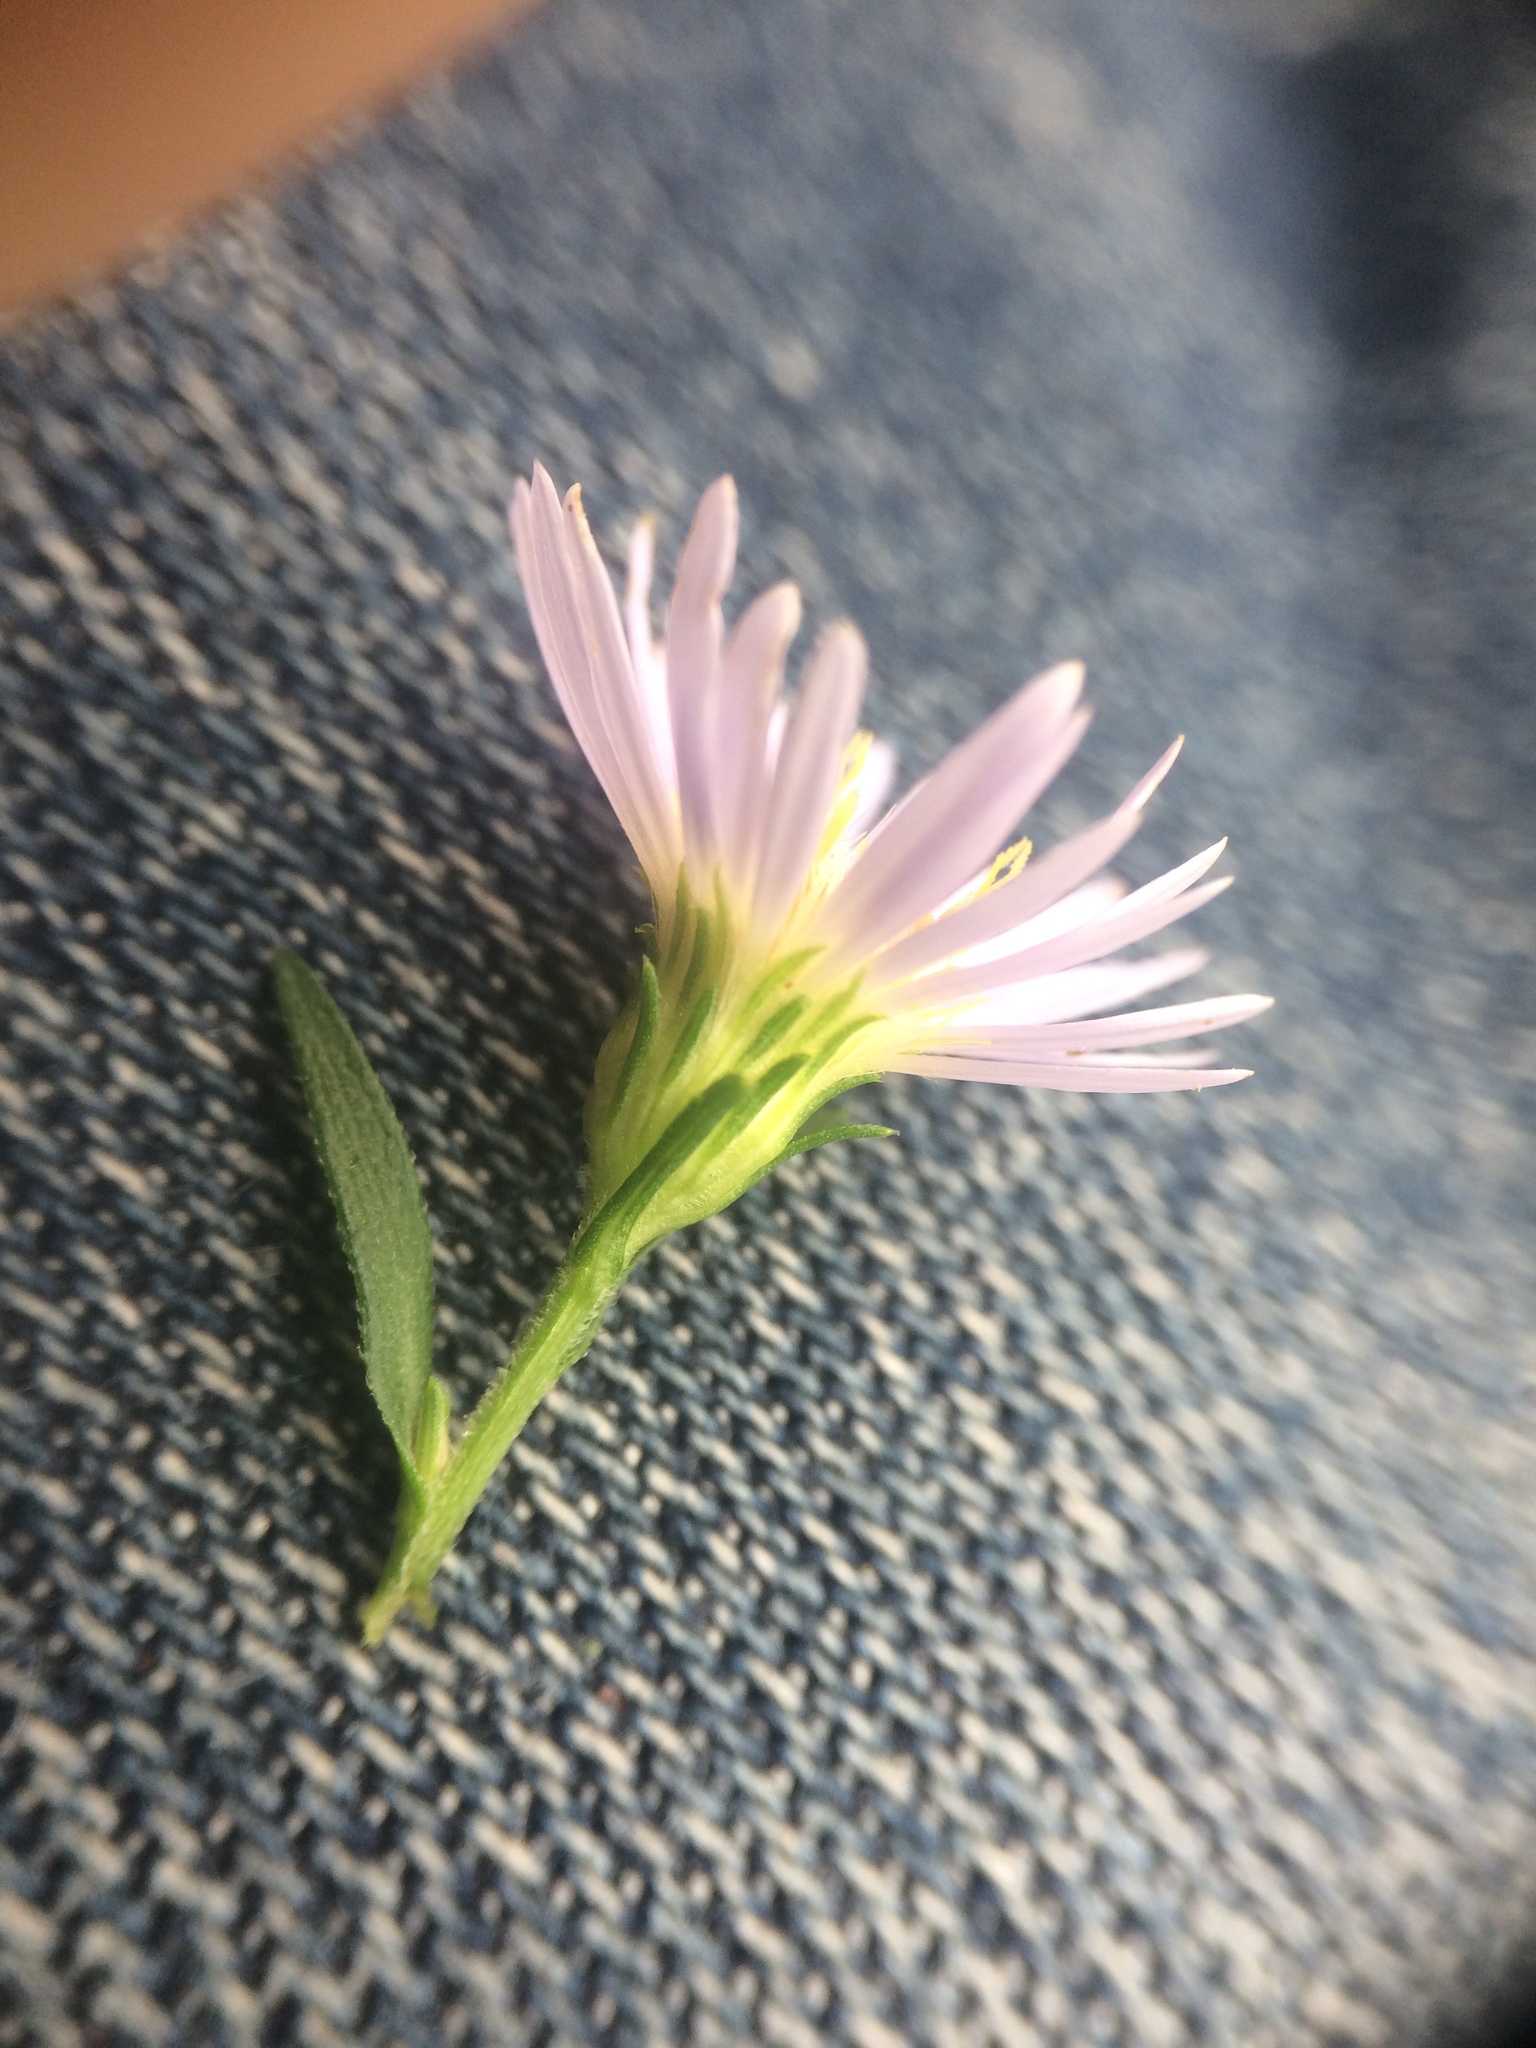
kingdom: Plantae
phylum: Tracheophyta
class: Magnoliopsida
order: Asterales
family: Asteraceae
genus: Symphyotrichum
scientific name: Symphyotrichum lanceolatum
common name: Panicled aster
